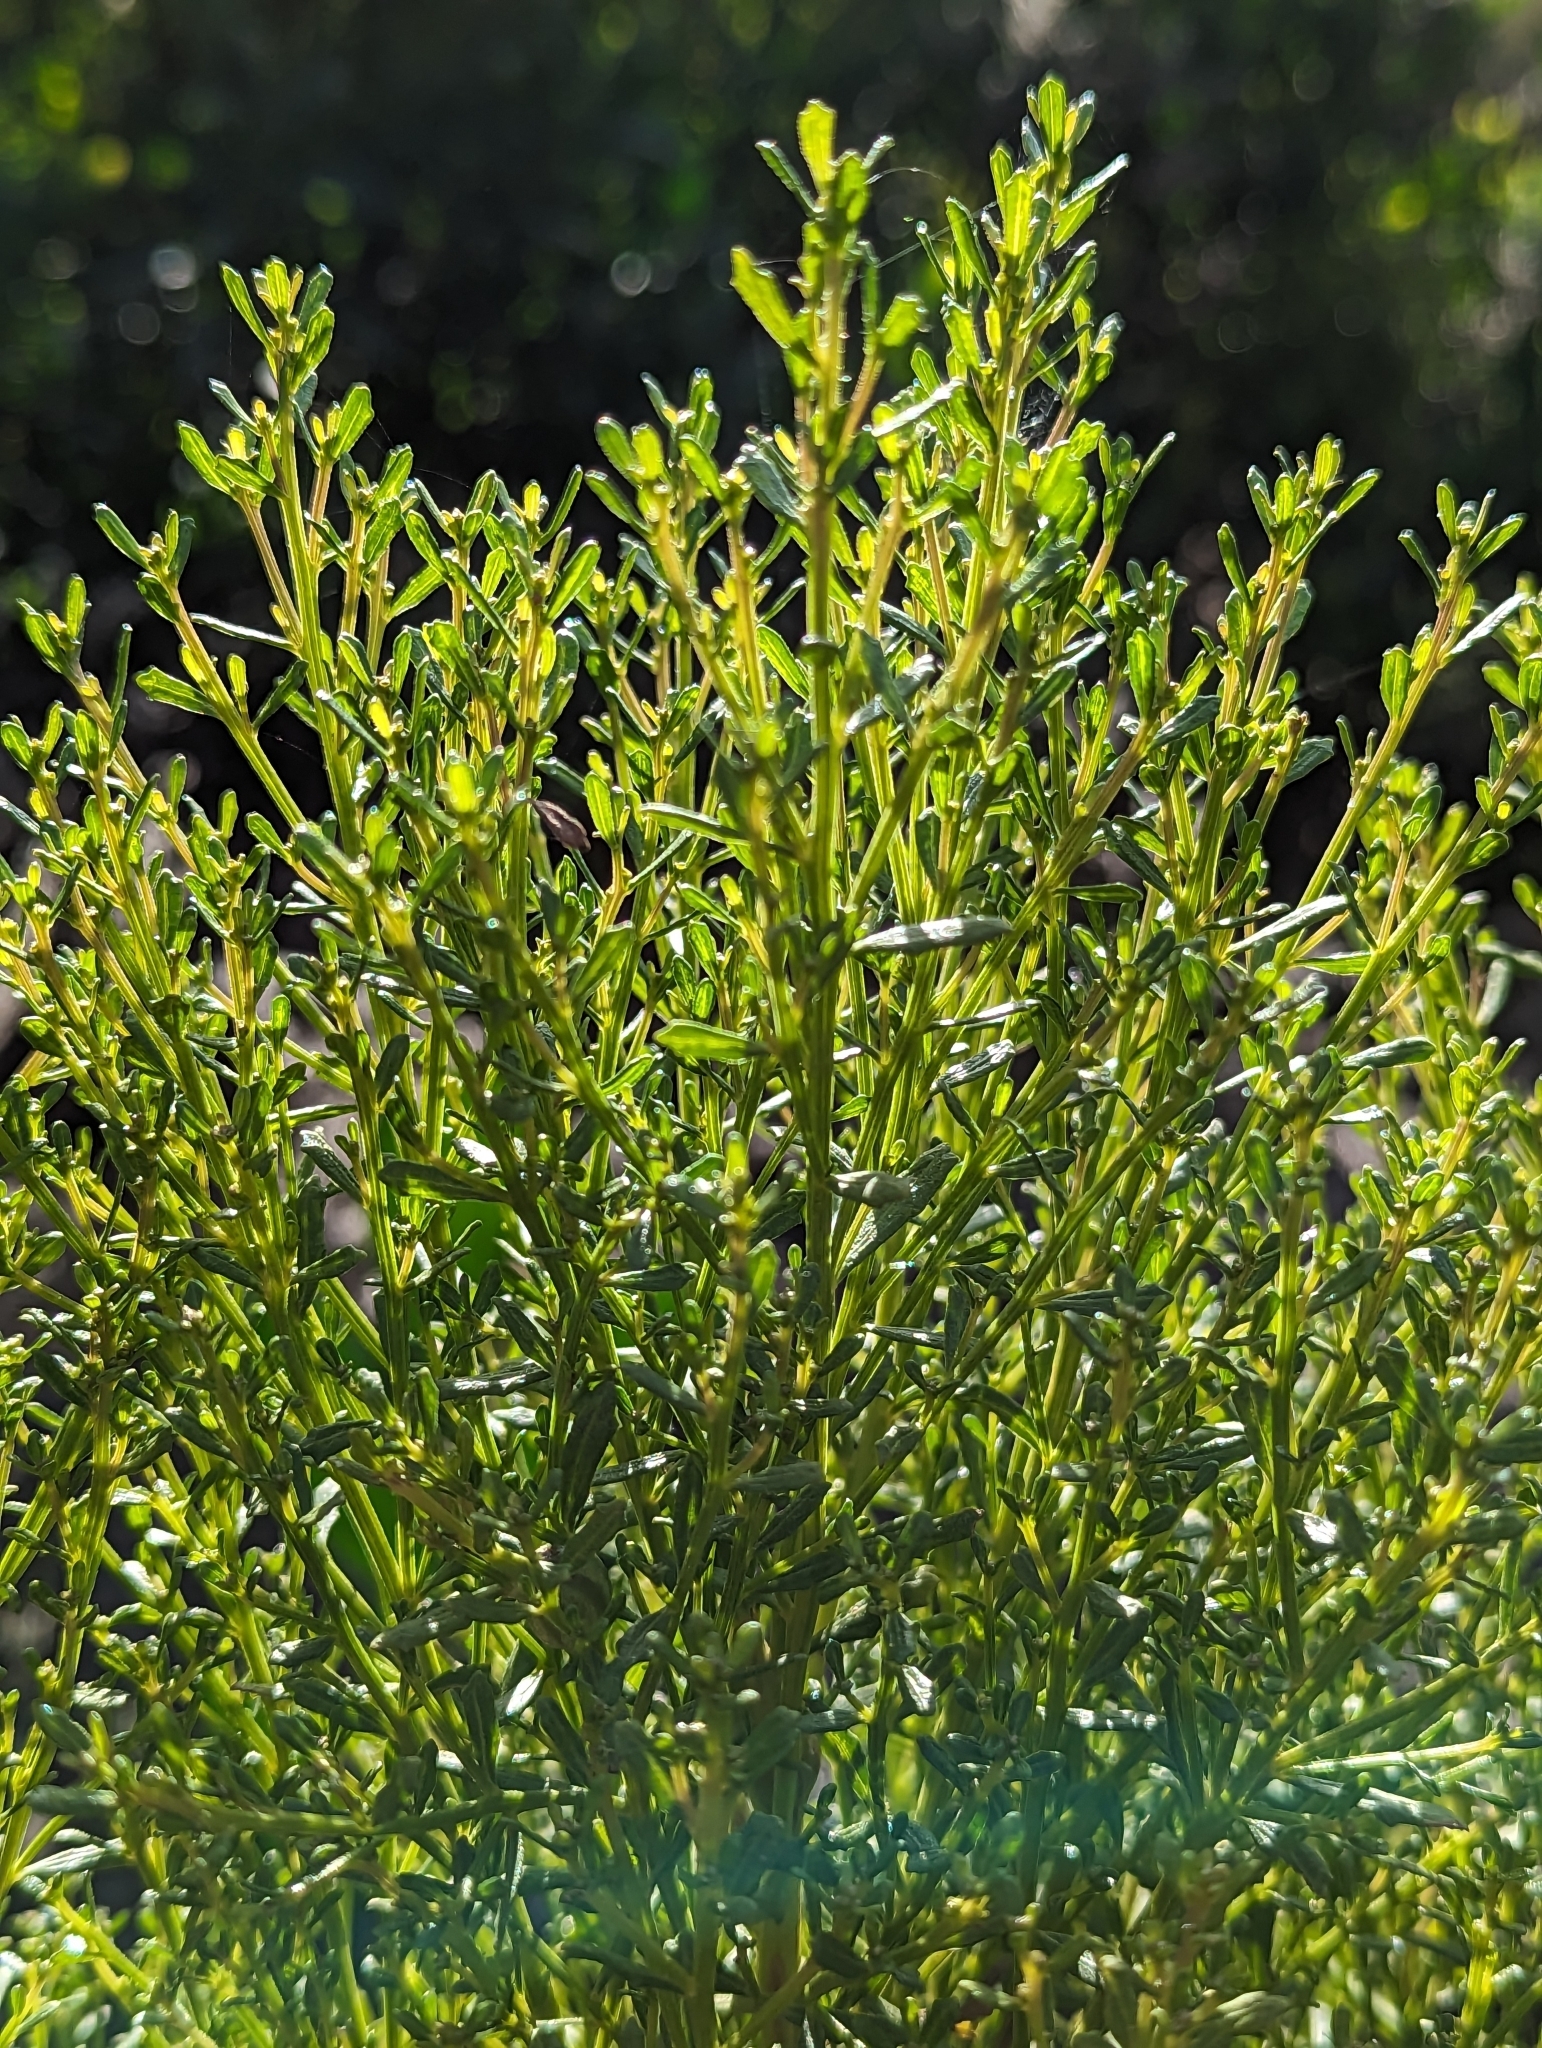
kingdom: Plantae
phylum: Tracheophyta
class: Magnoliopsida
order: Asterales
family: Asteraceae
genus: Baccharis
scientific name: Baccharis sarothroides
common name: Desert-broom
